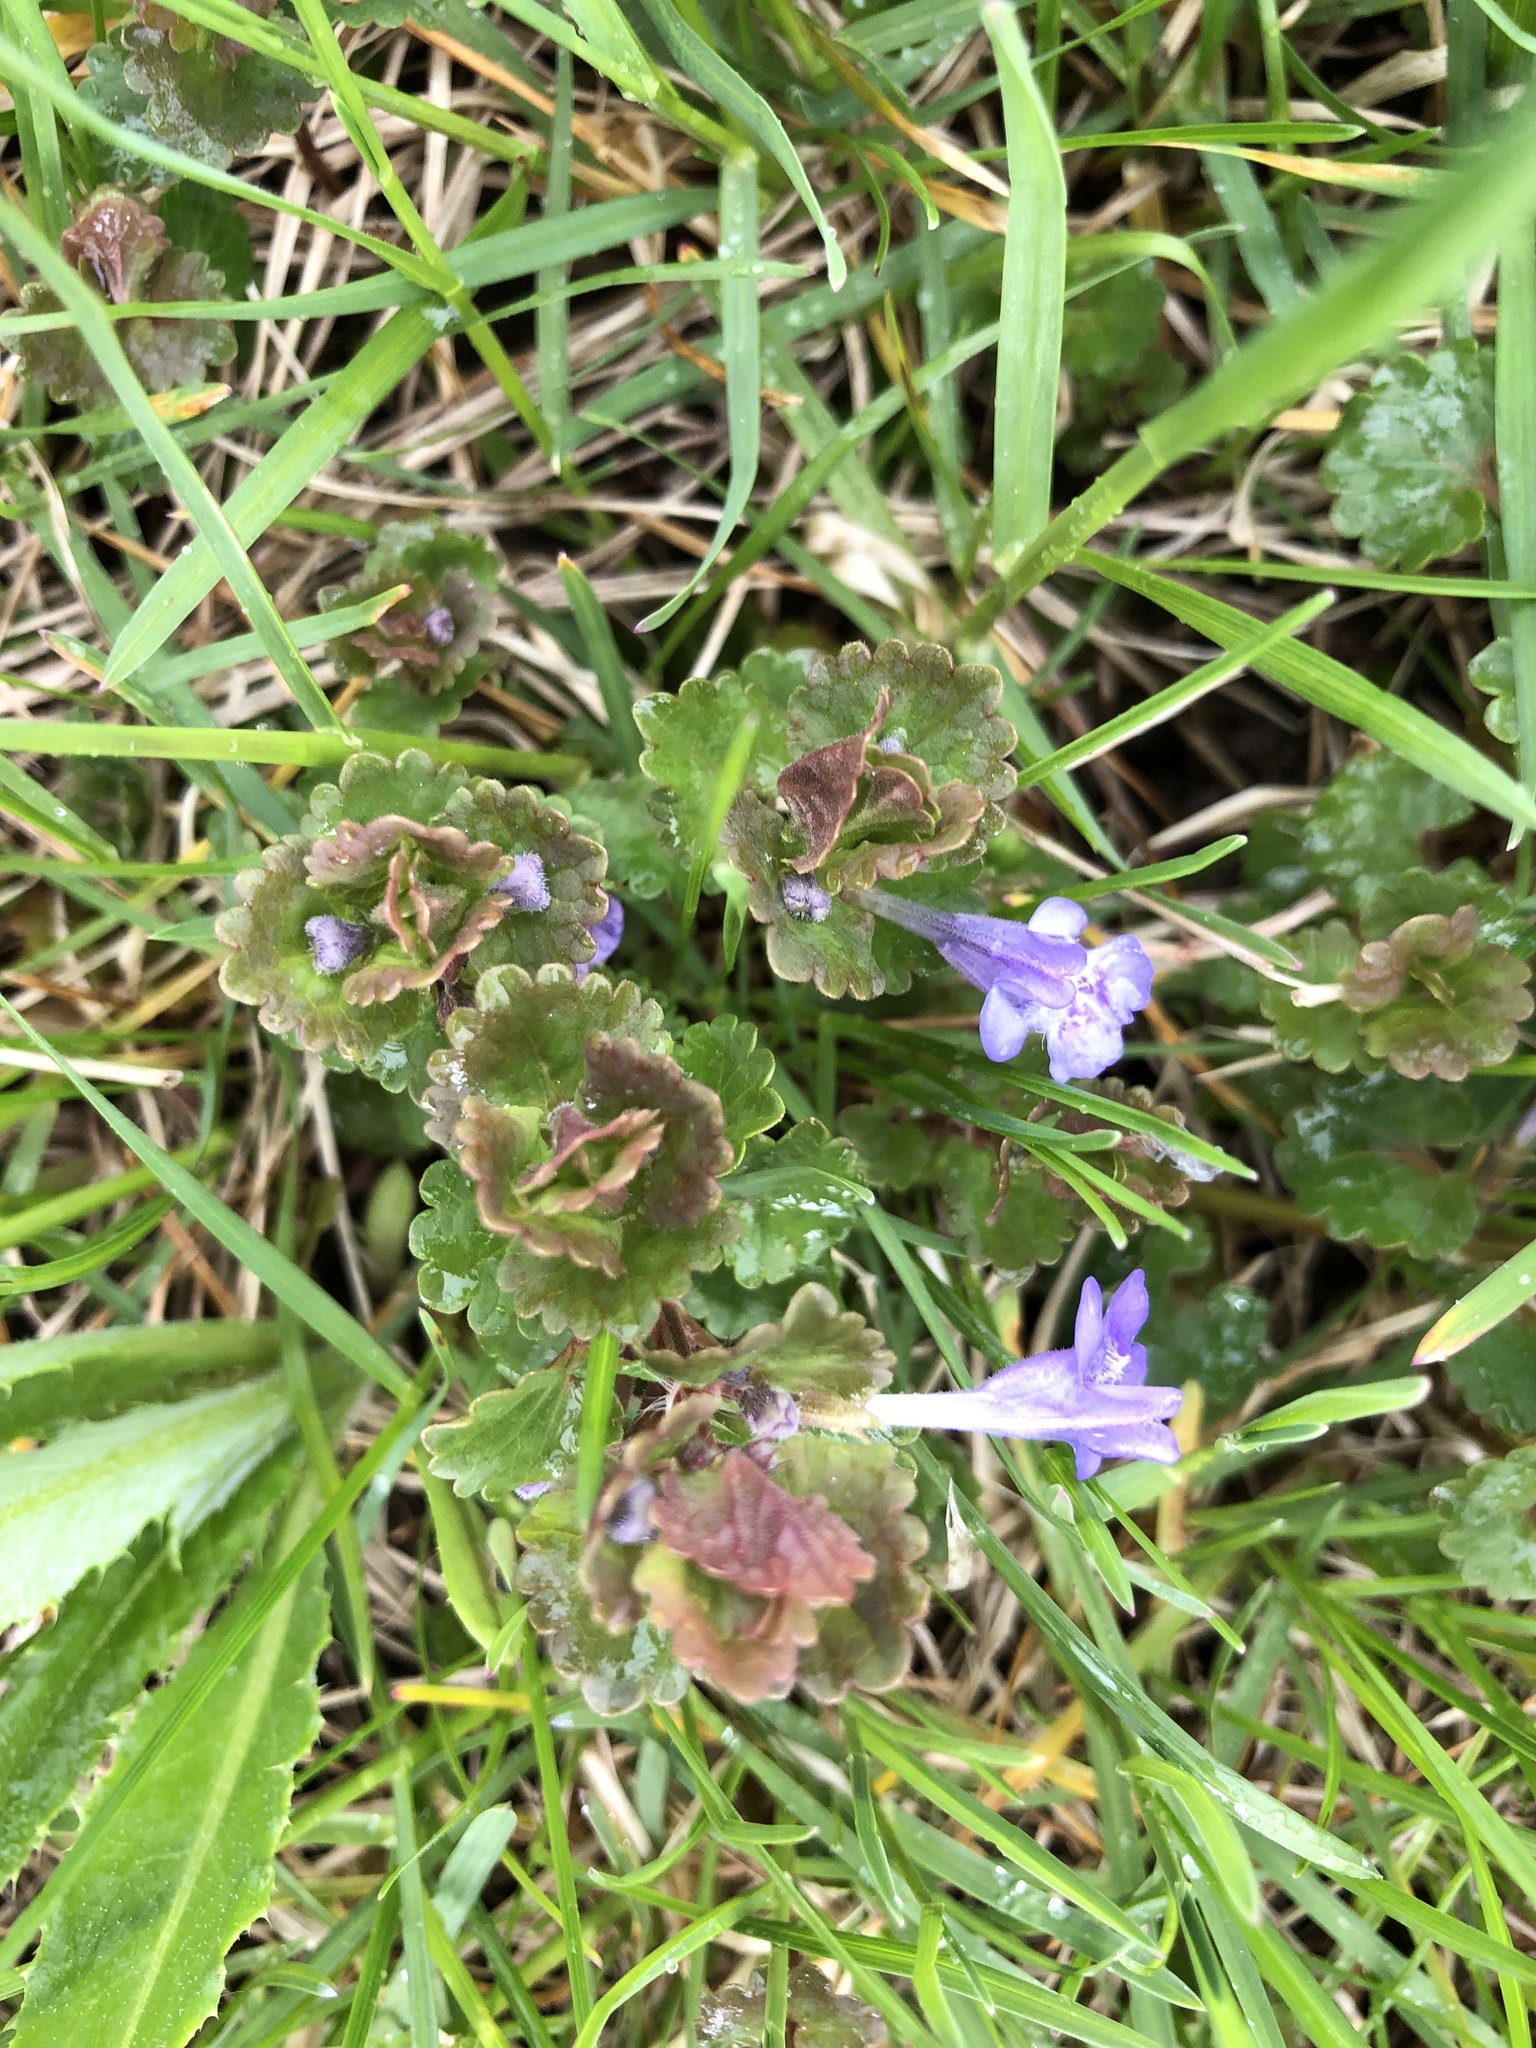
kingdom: Plantae
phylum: Tracheophyta
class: Magnoliopsida
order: Lamiales
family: Lamiaceae
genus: Glechoma
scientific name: Glechoma hederacea
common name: Ground ivy
